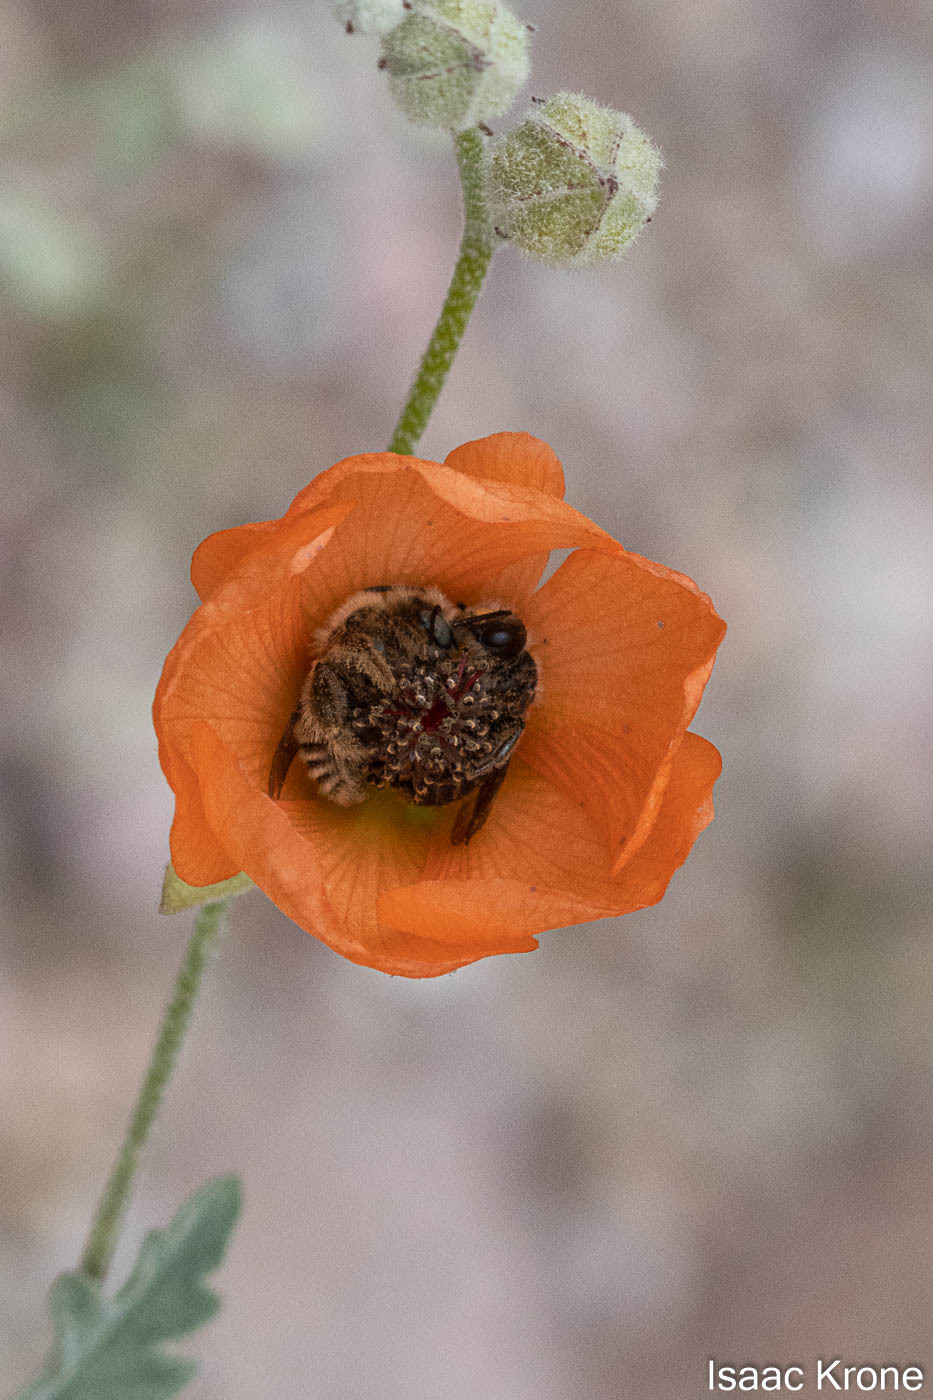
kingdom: Animalia
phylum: Arthropoda
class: Insecta
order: Hymenoptera
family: Andrenidae
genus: Andrena
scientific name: Andrena sphaeralceae
